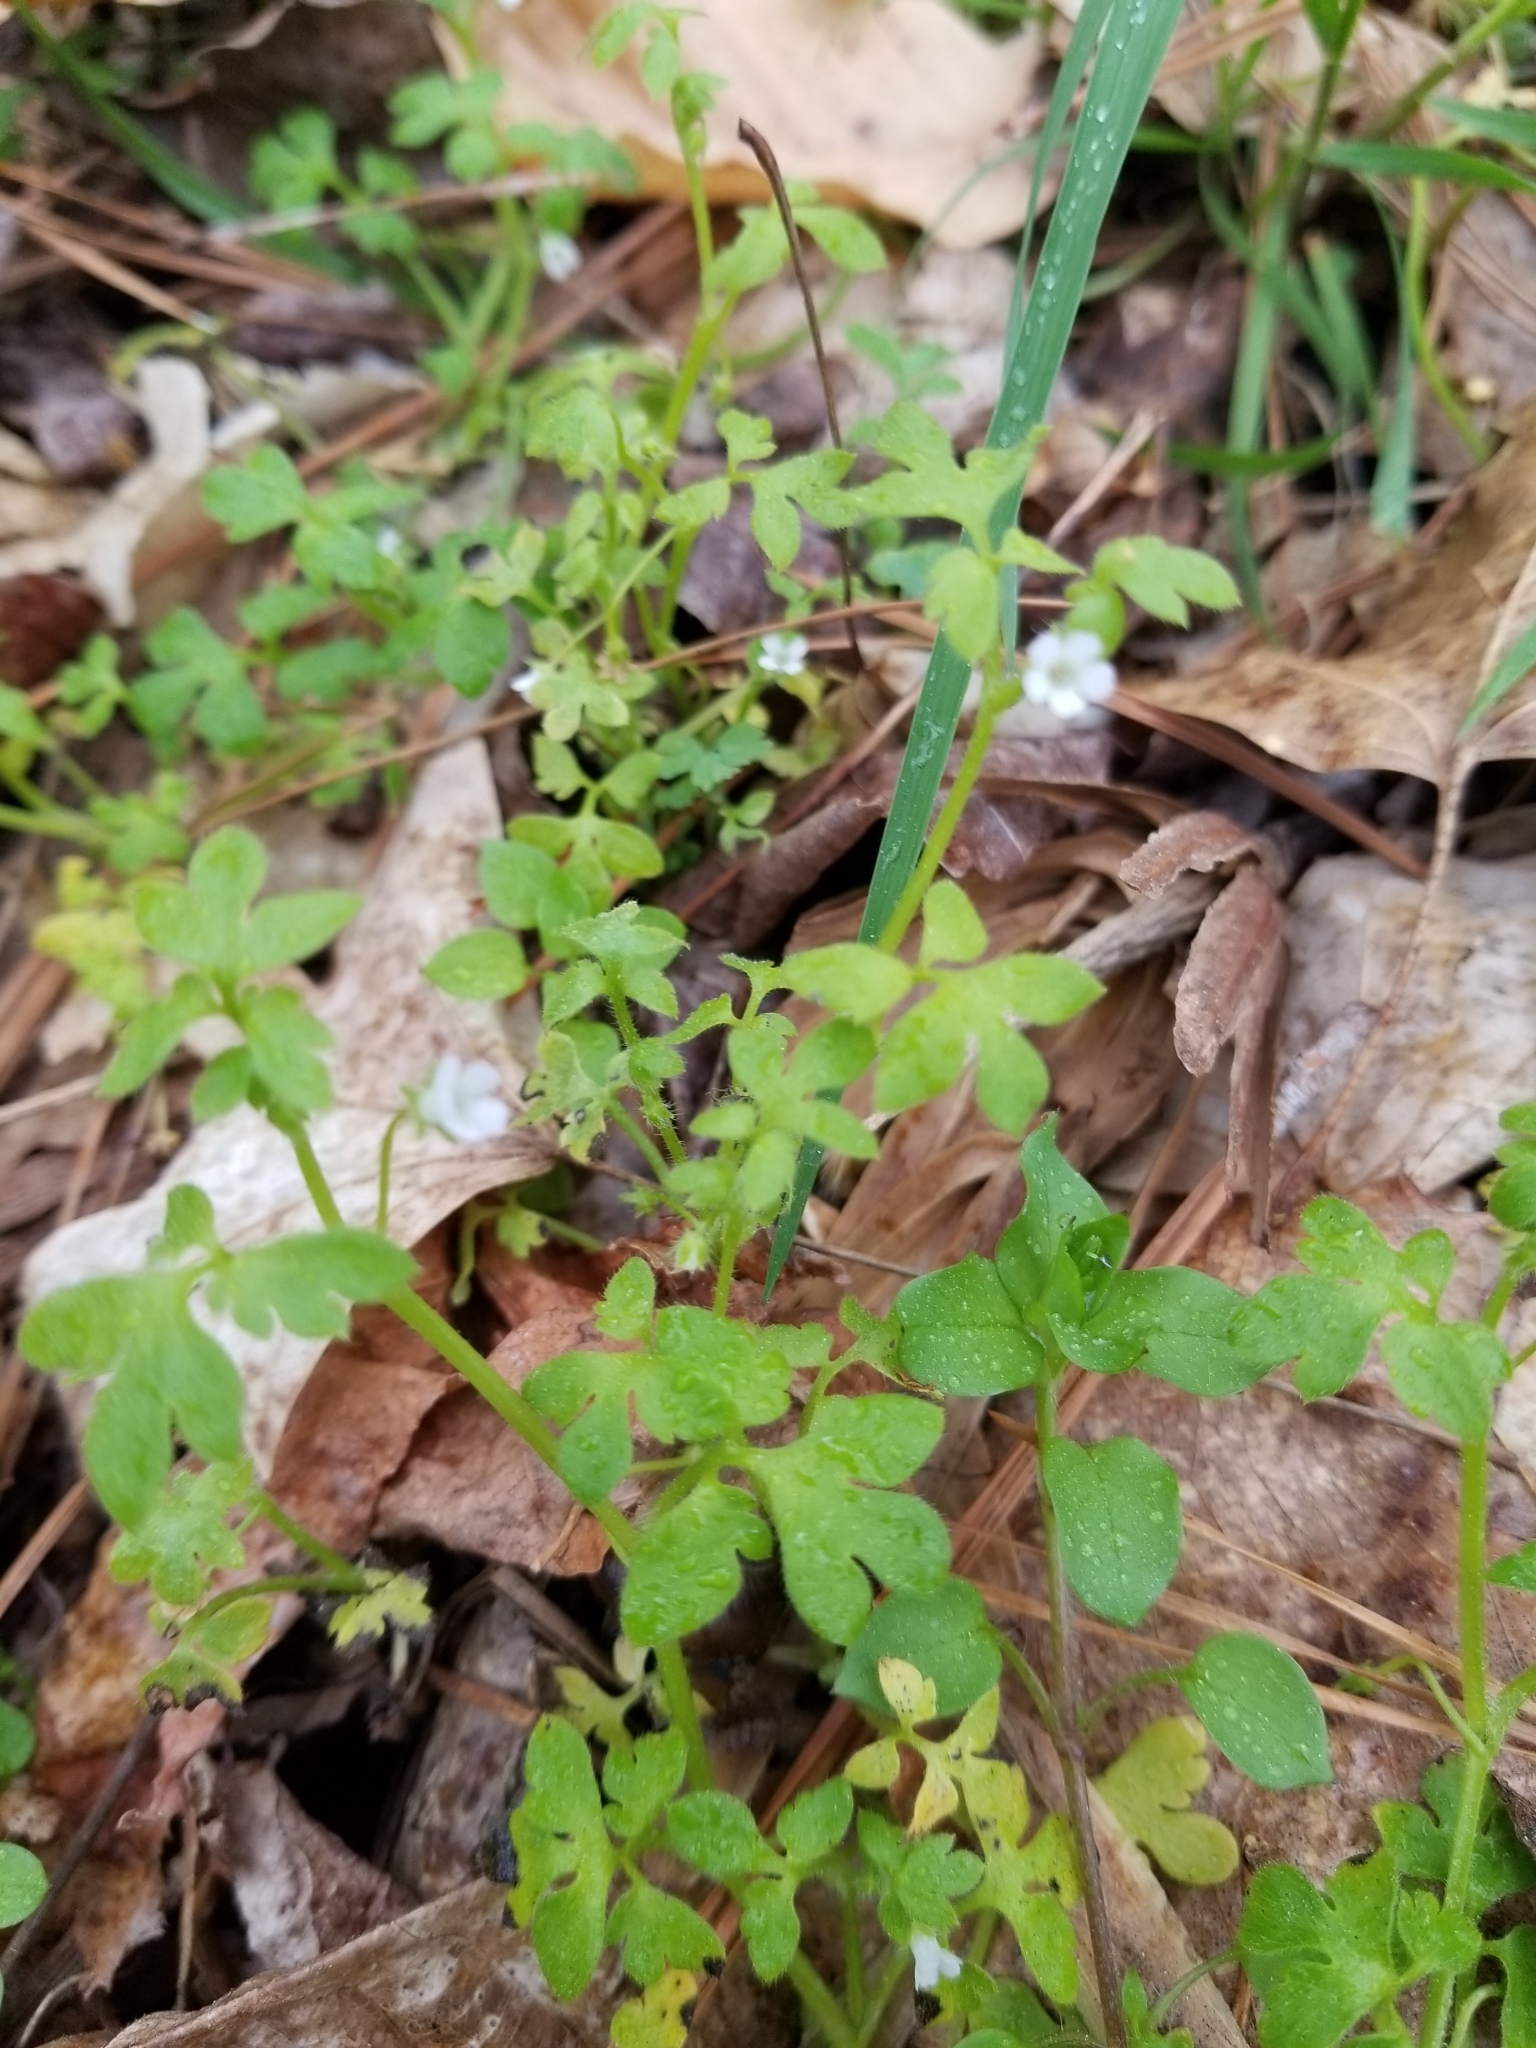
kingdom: Plantae
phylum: Tracheophyta
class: Magnoliopsida
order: Boraginales
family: Hydrophyllaceae
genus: Nemophila
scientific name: Nemophila aphylla
